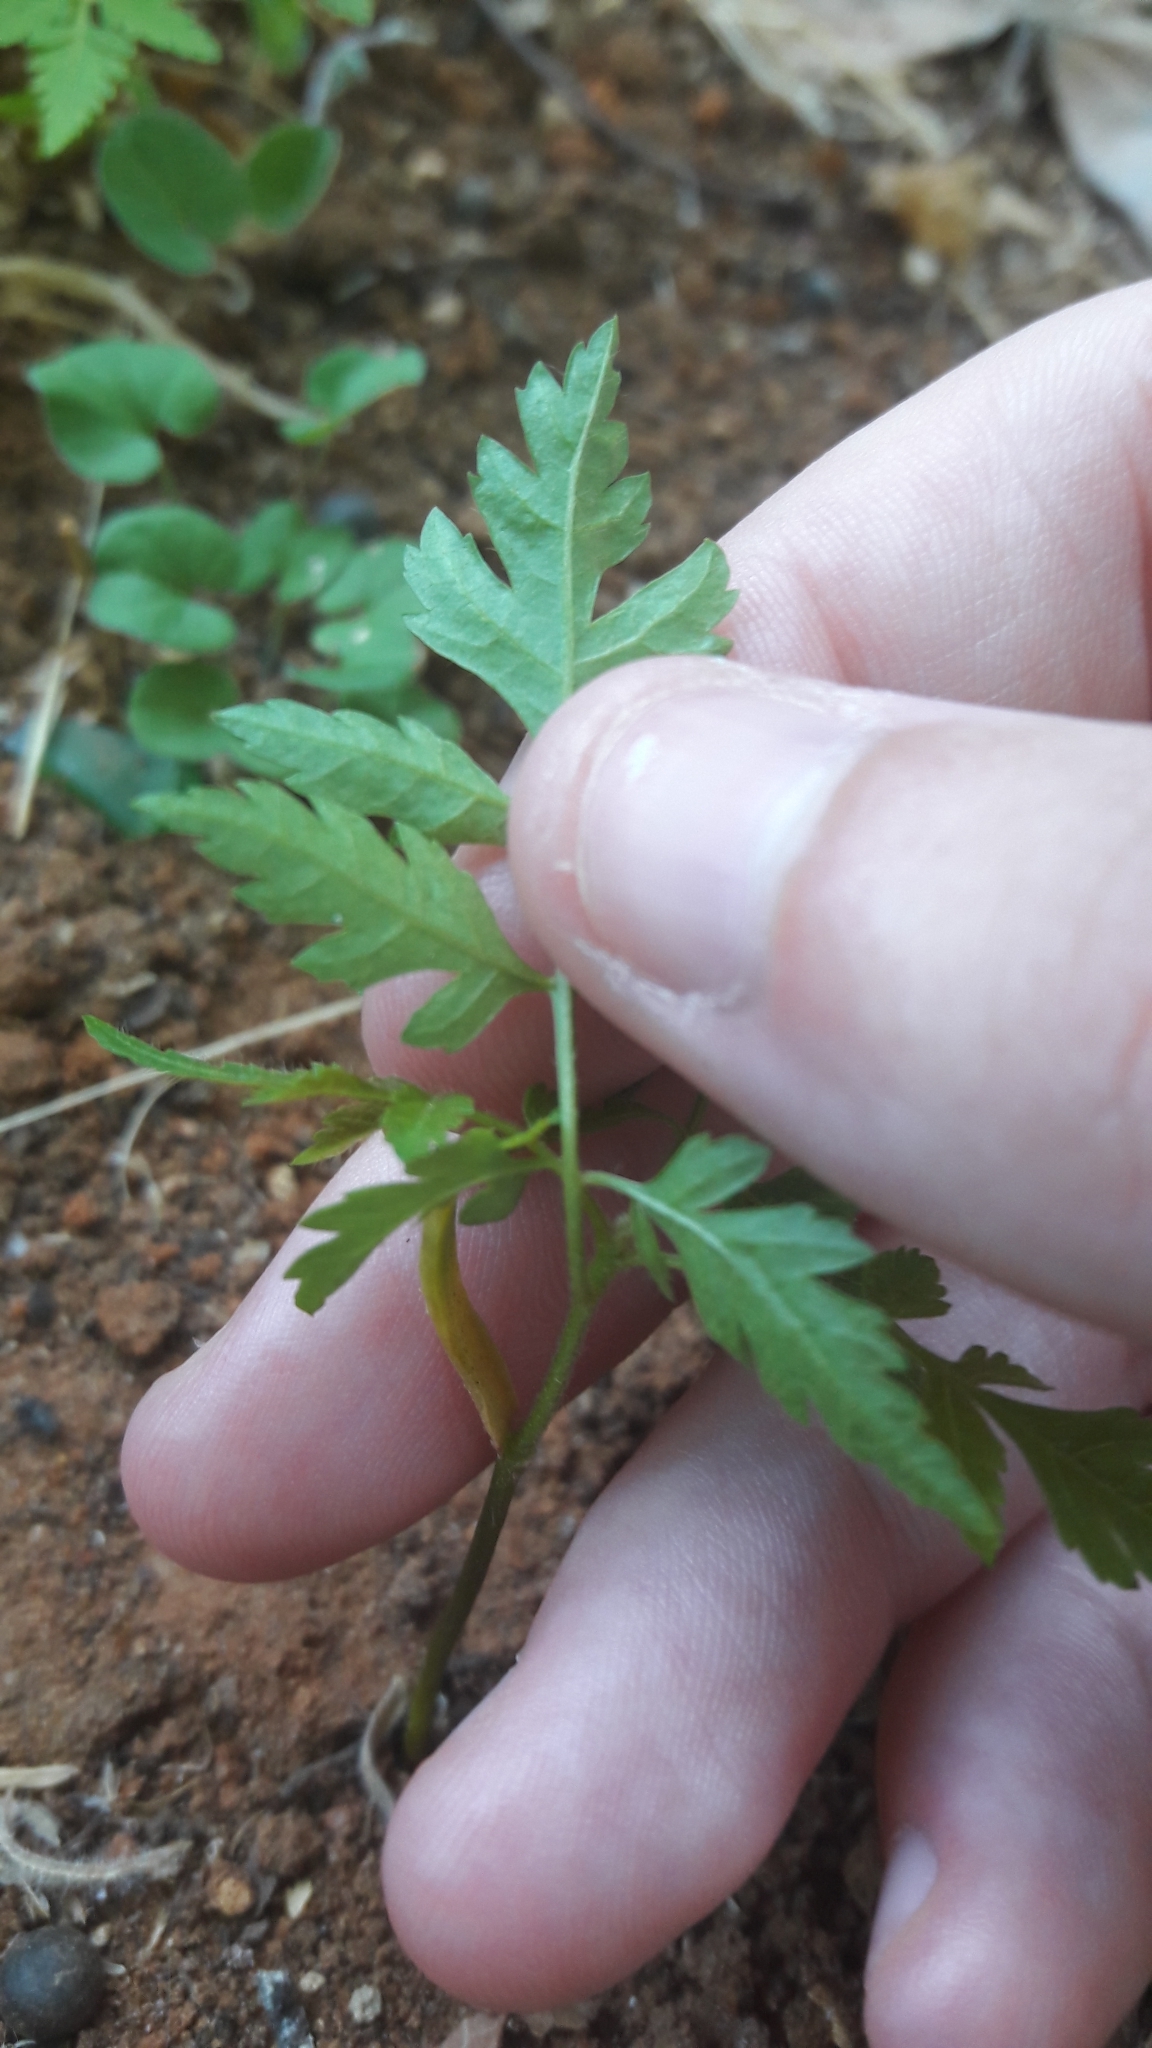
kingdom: Plantae
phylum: Tracheophyta
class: Magnoliopsida
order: Sapindales
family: Meliaceae
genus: Melia
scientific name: Melia azedarach
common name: Chinaberrytree
